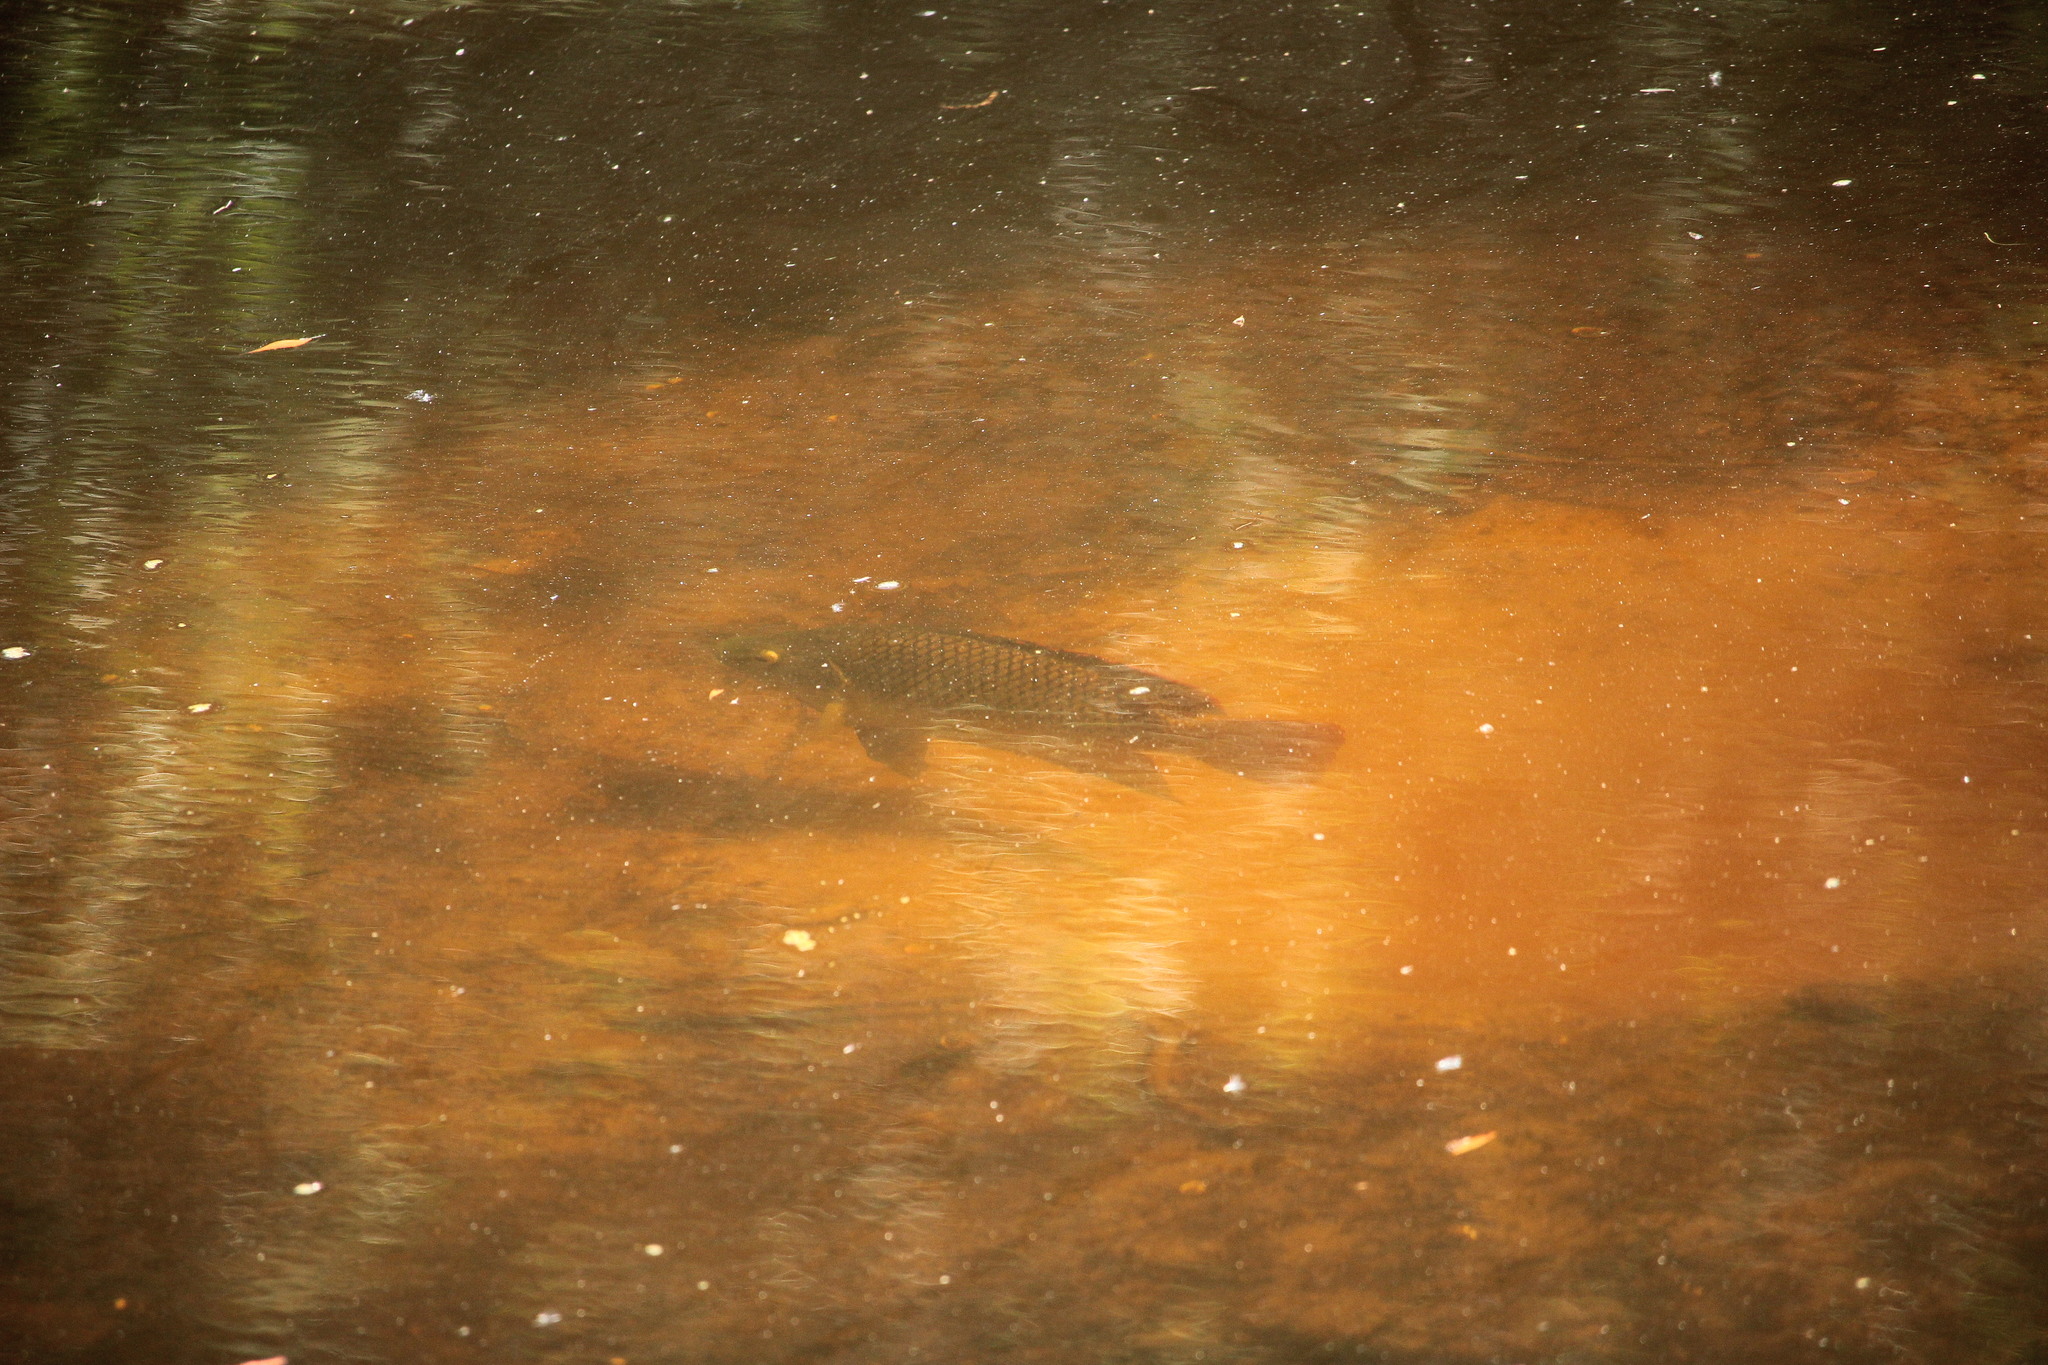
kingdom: Animalia
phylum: Chordata
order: Perciformes
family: Cichlidae
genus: Oreochromis
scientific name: Oreochromis aureus
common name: Blue tilapia
